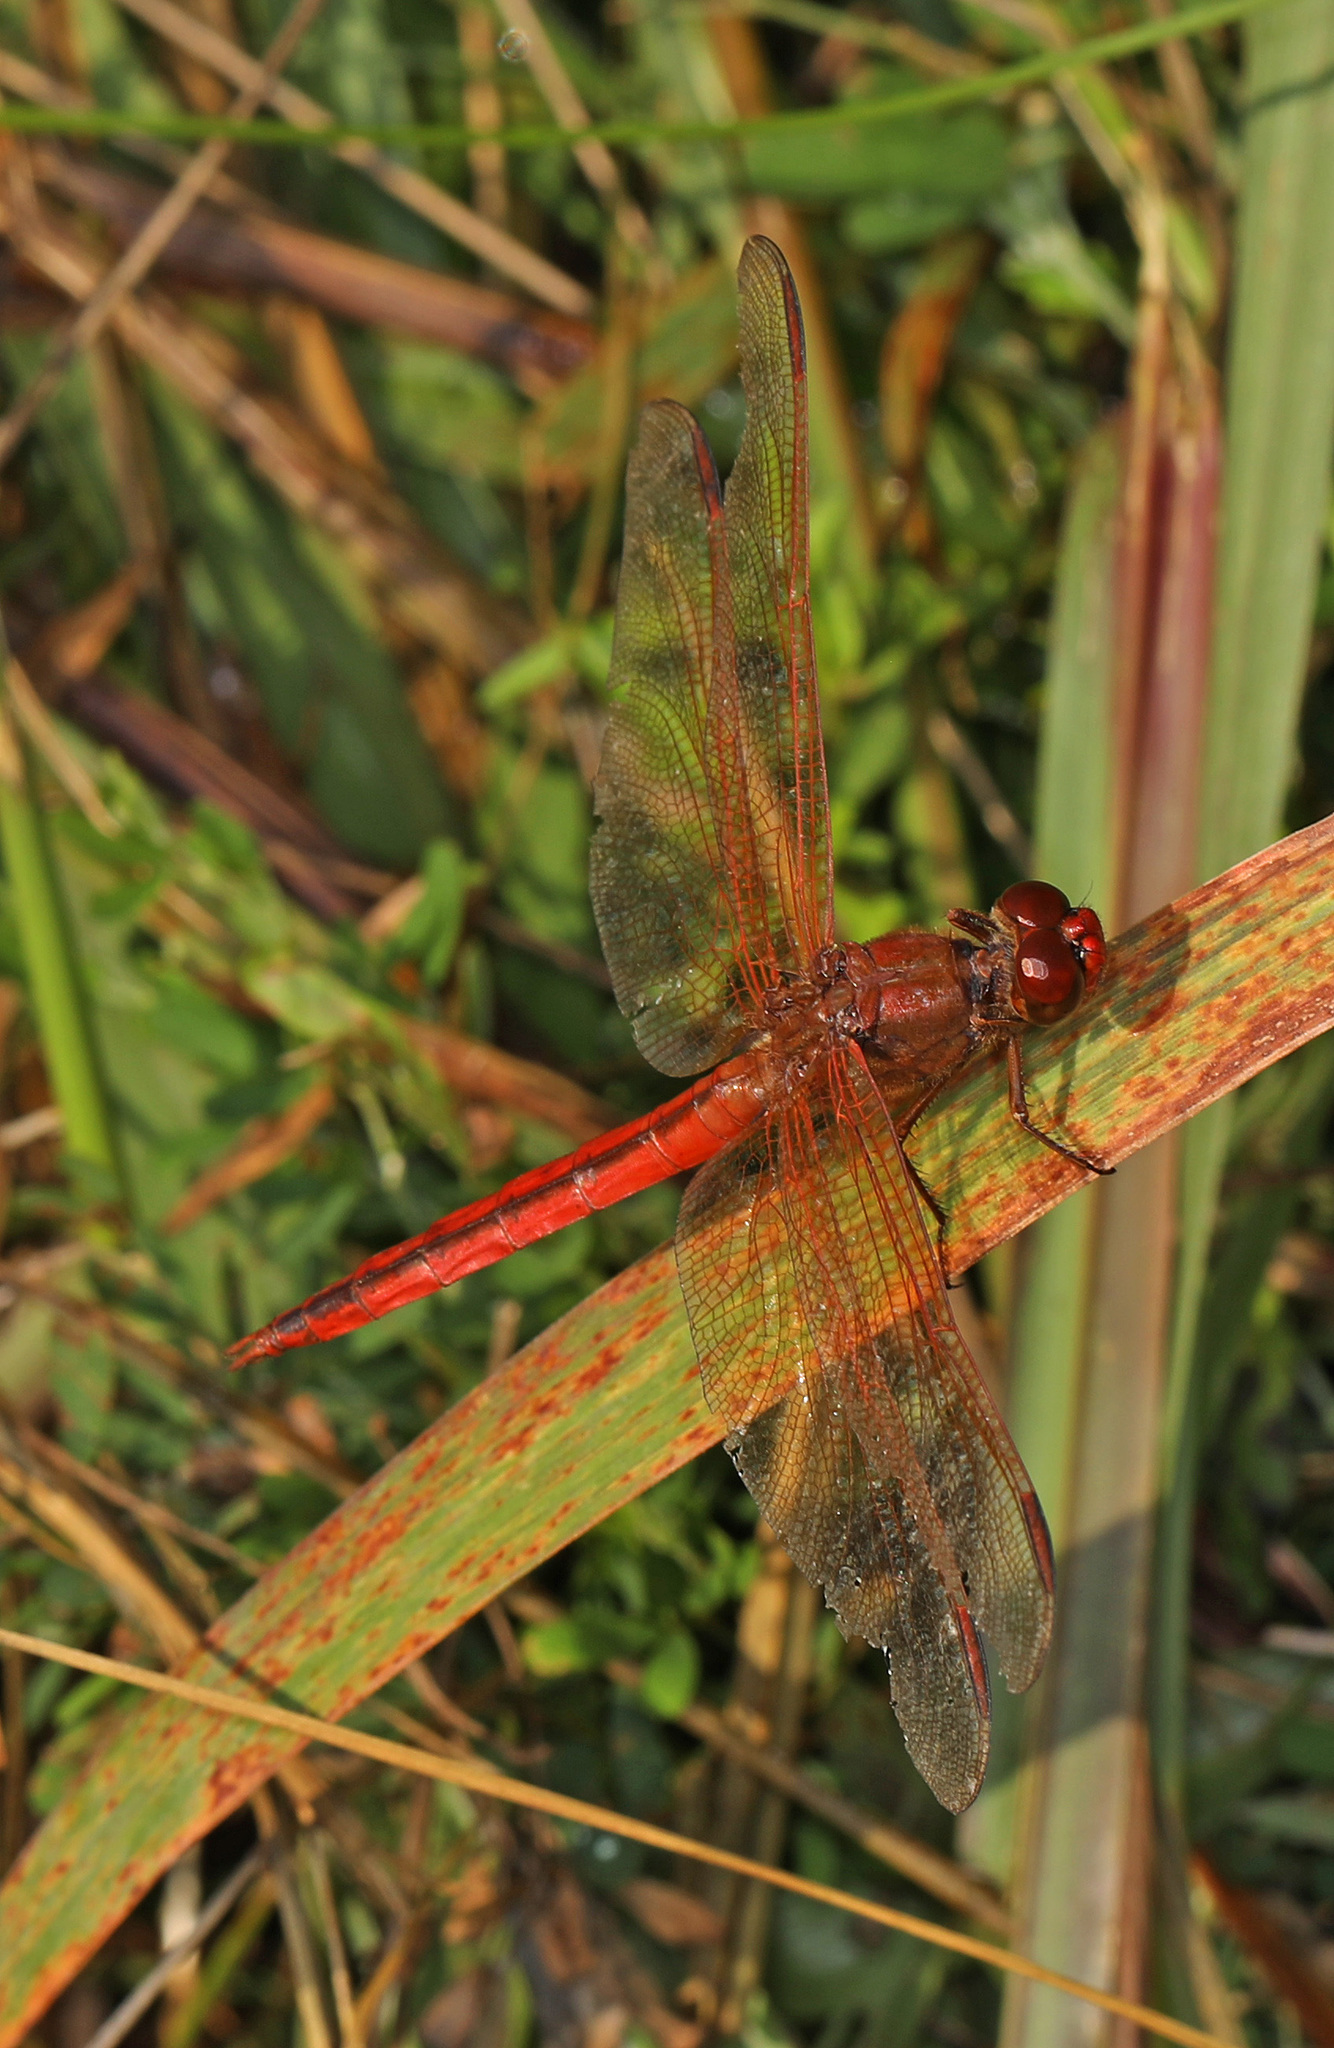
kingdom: Animalia
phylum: Arthropoda
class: Insecta
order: Odonata
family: Libellulidae
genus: Libellula
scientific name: Libellula needhami
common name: Needham's skimmer
